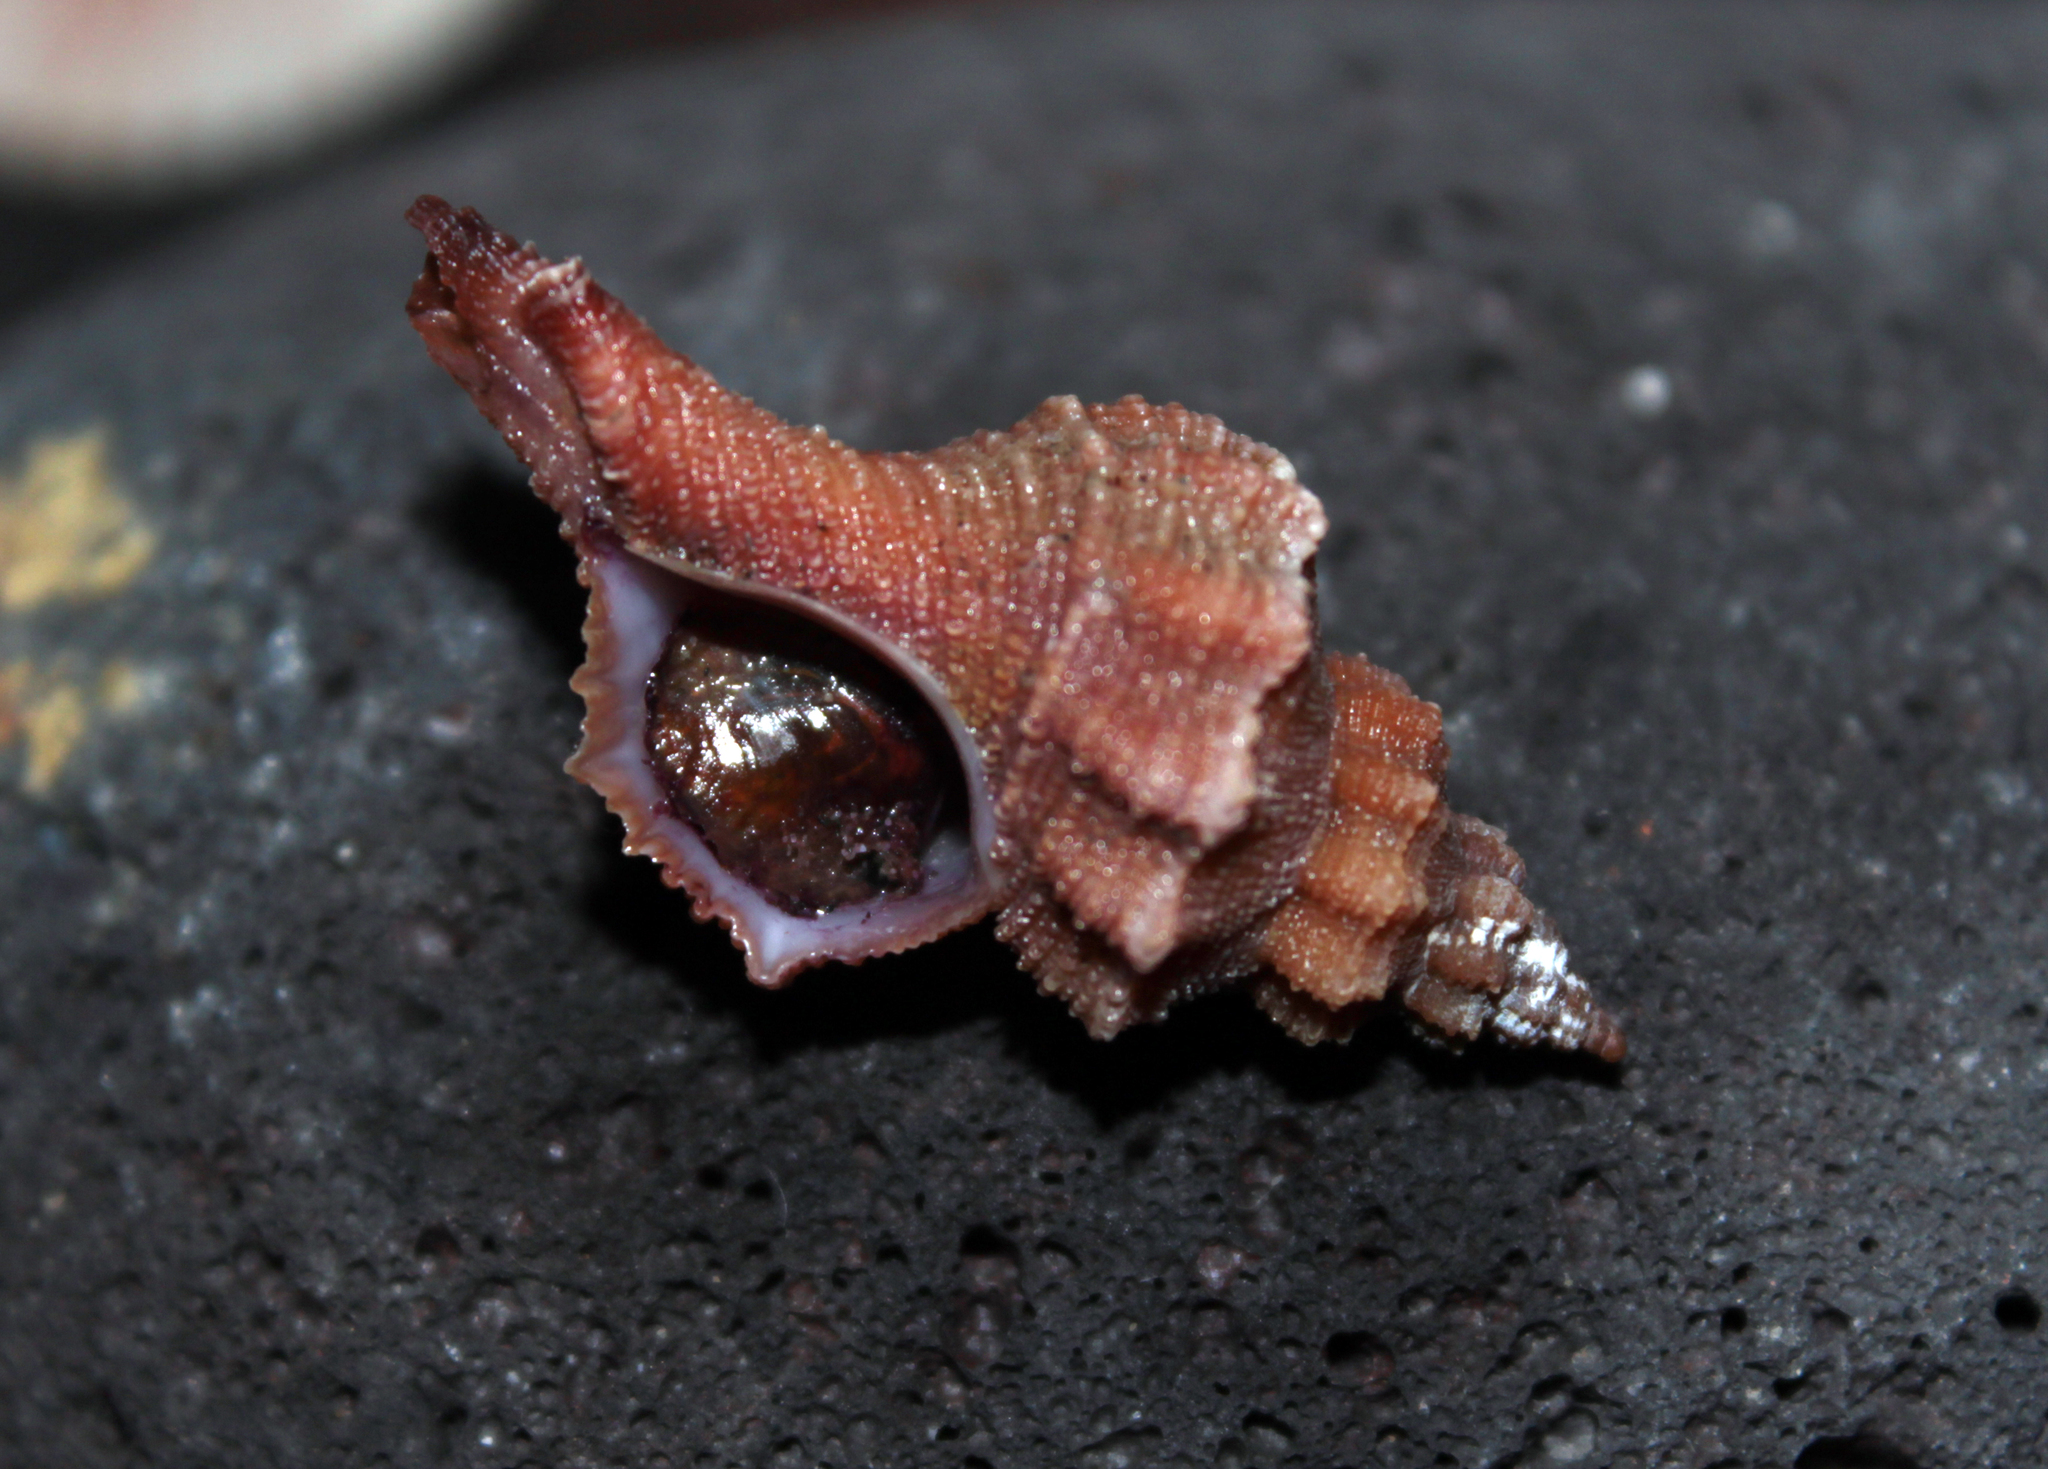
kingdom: Animalia
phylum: Mollusca
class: Gastropoda
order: Neogastropoda
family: Muricidae
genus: Gracilipurpura
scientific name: Gracilipurpura craticulata
